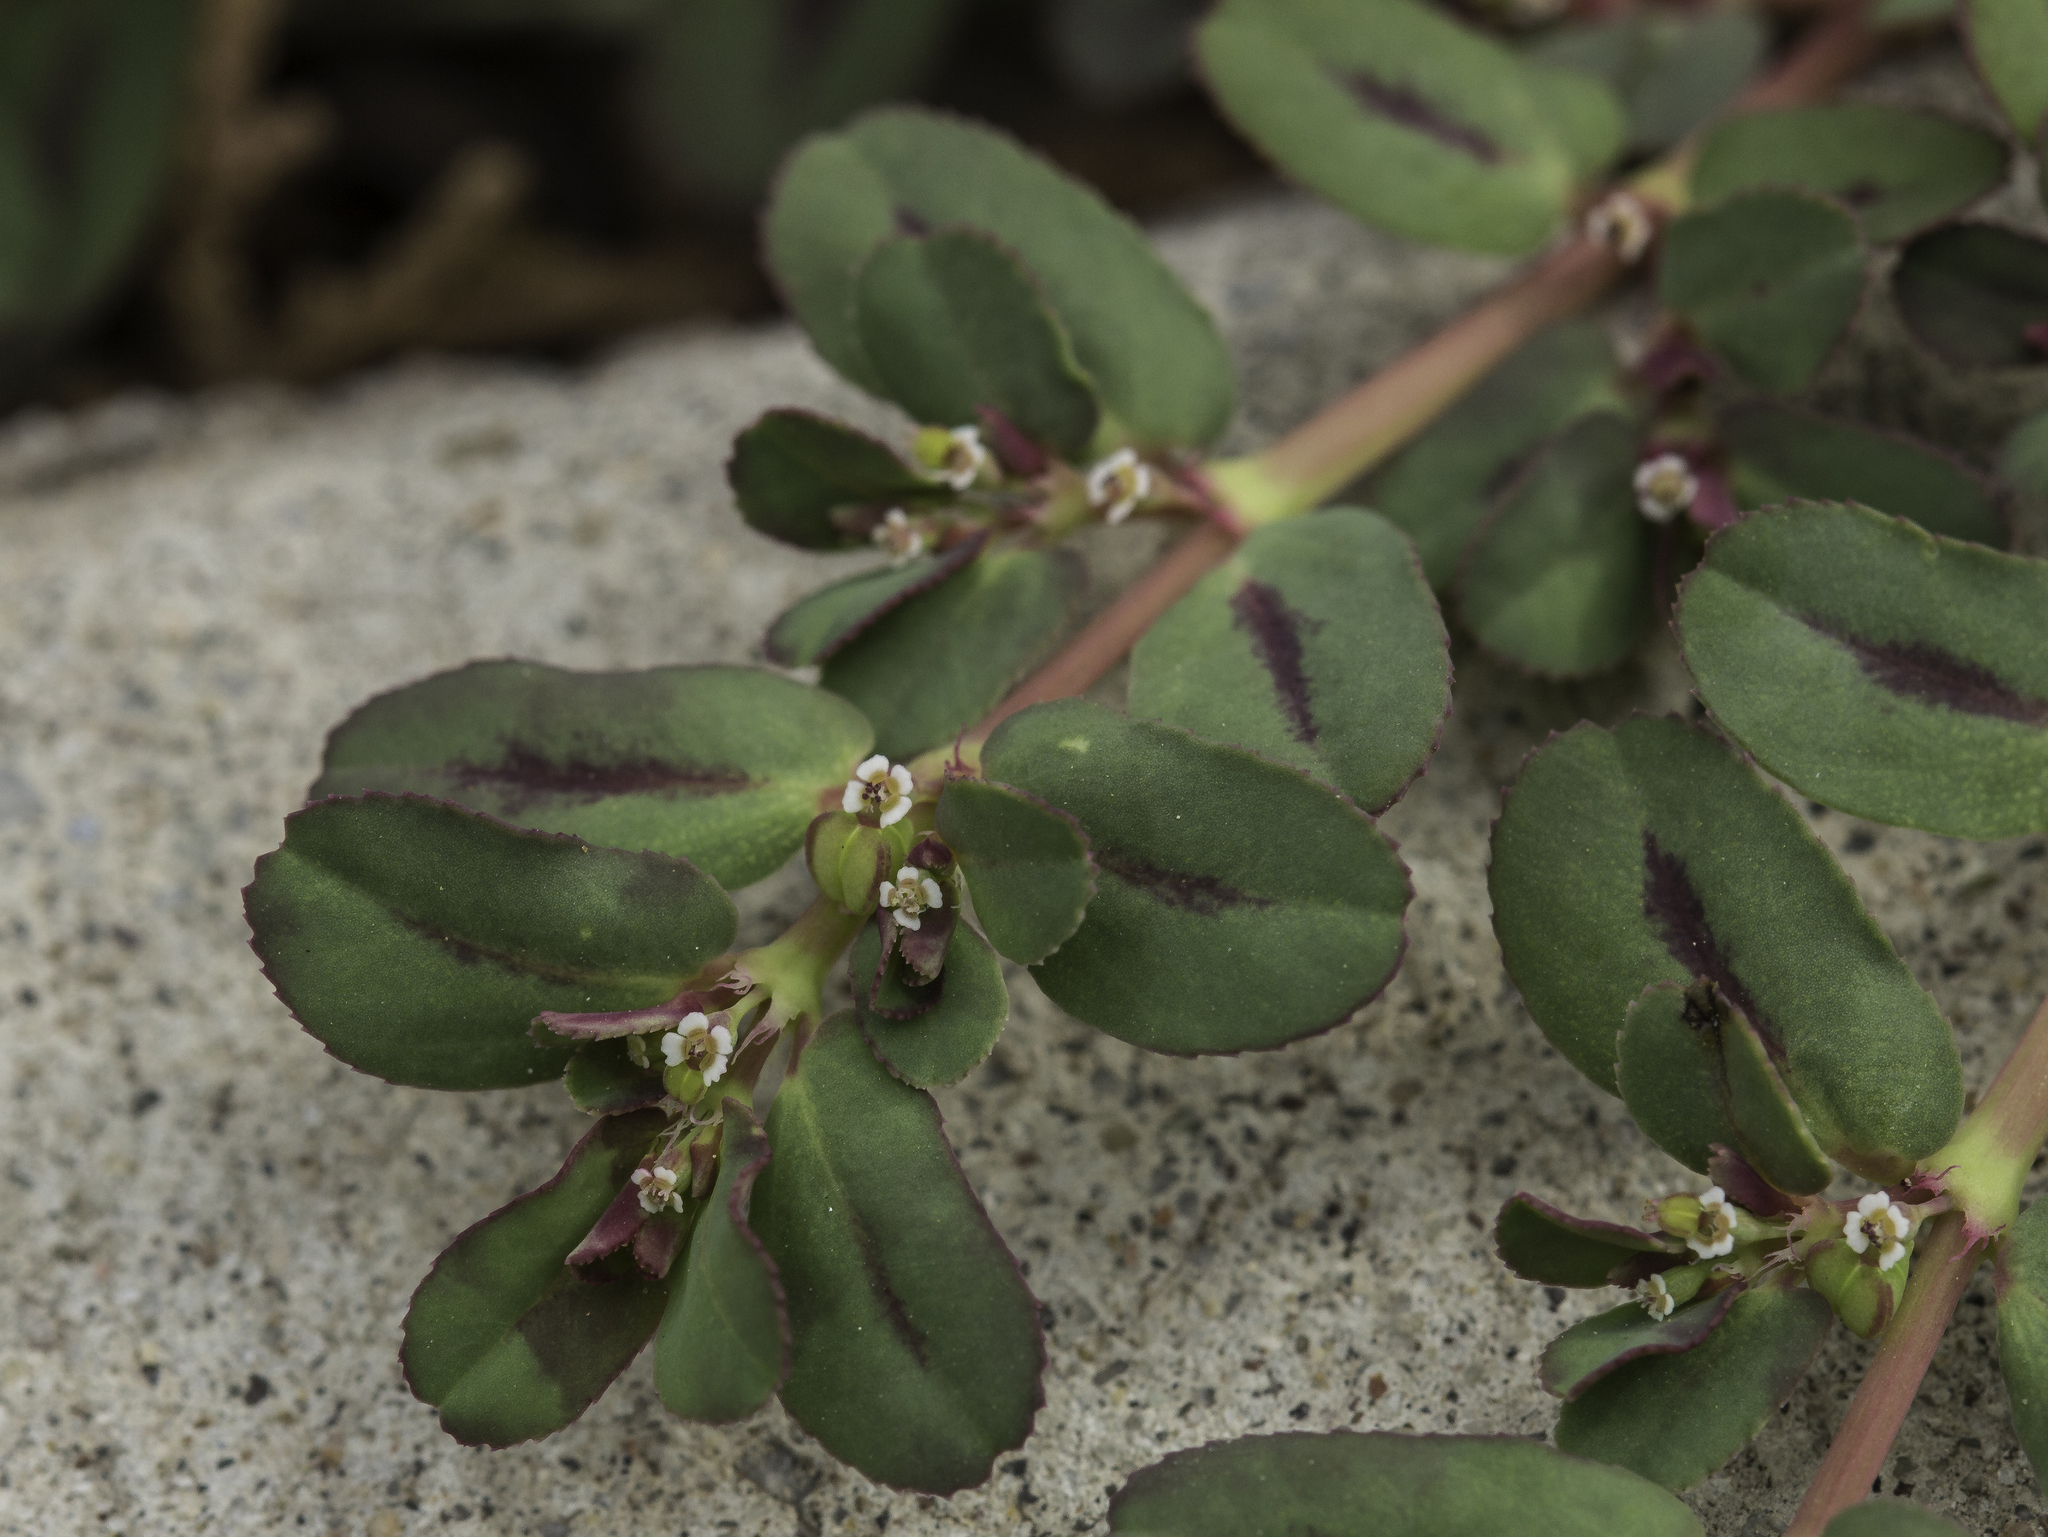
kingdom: Plantae
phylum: Tracheophyta
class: Magnoliopsida
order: Malpighiales
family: Euphorbiaceae
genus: Euphorbia
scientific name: Euphorbia serpillifolia
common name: Thyme-leaf spurge
